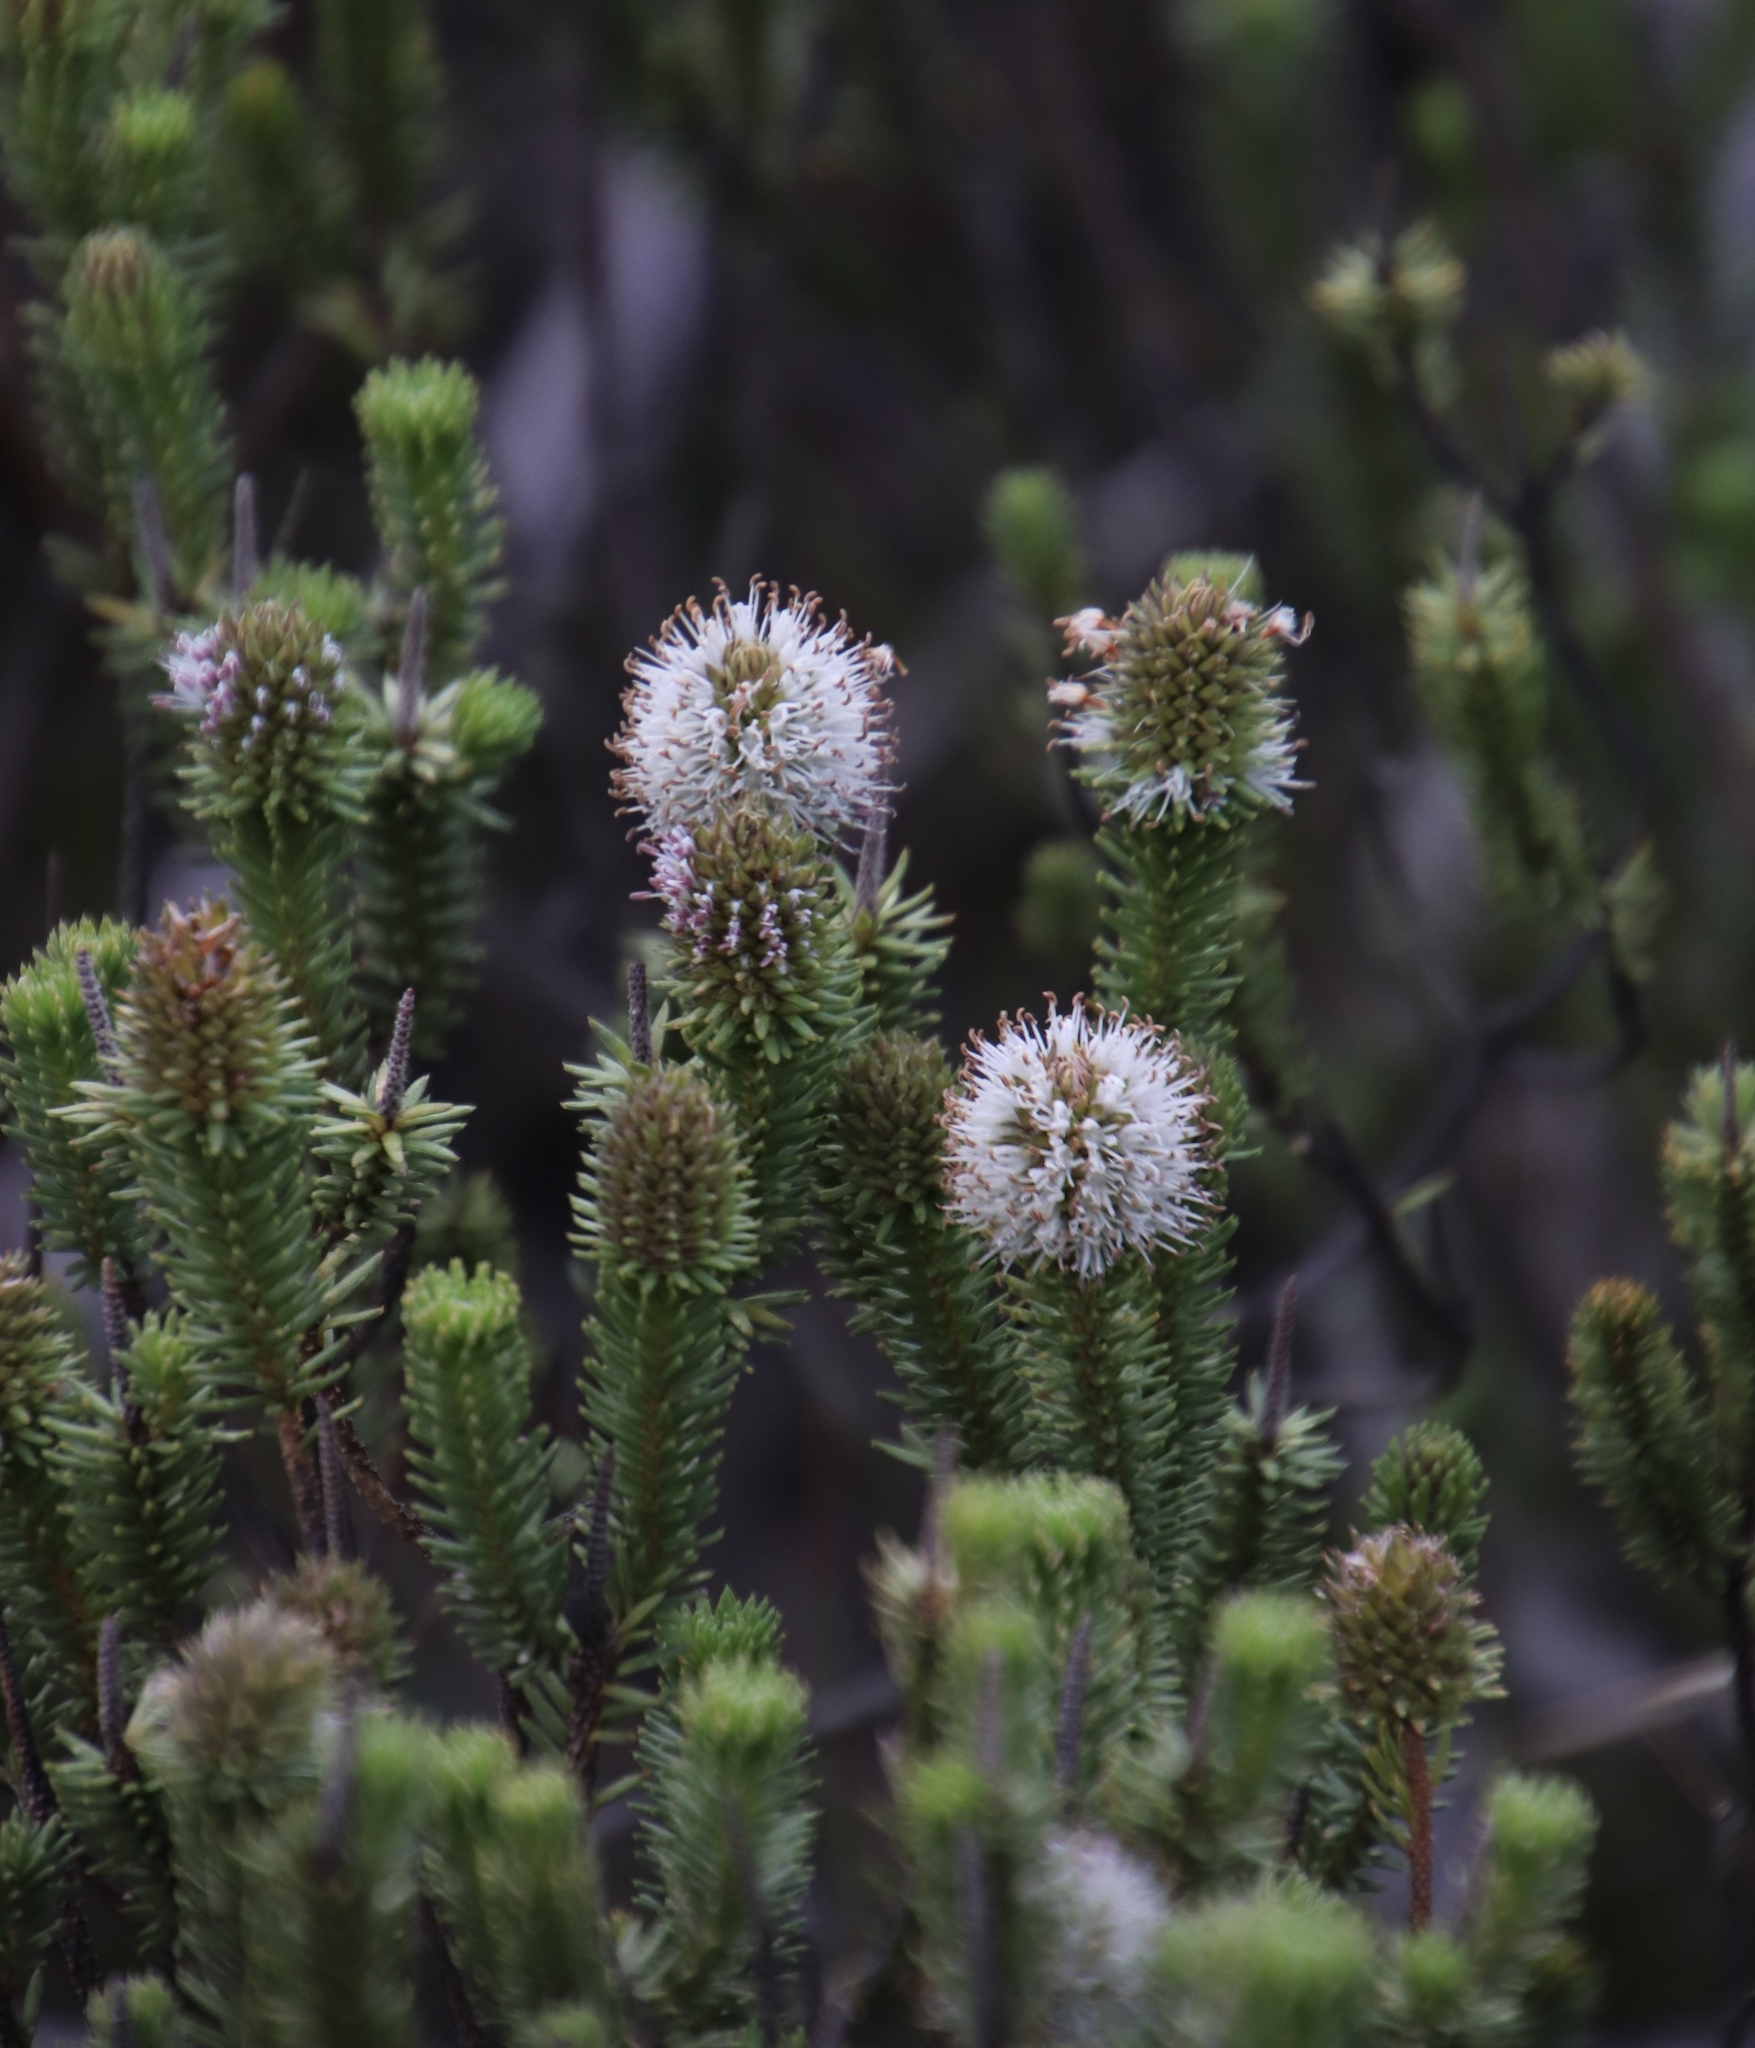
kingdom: Plantae
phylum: Tracheophyta
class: Magnoliopsida
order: Lamiales
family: Stilbaceae
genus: Stilbe
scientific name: Stilbe vestita
